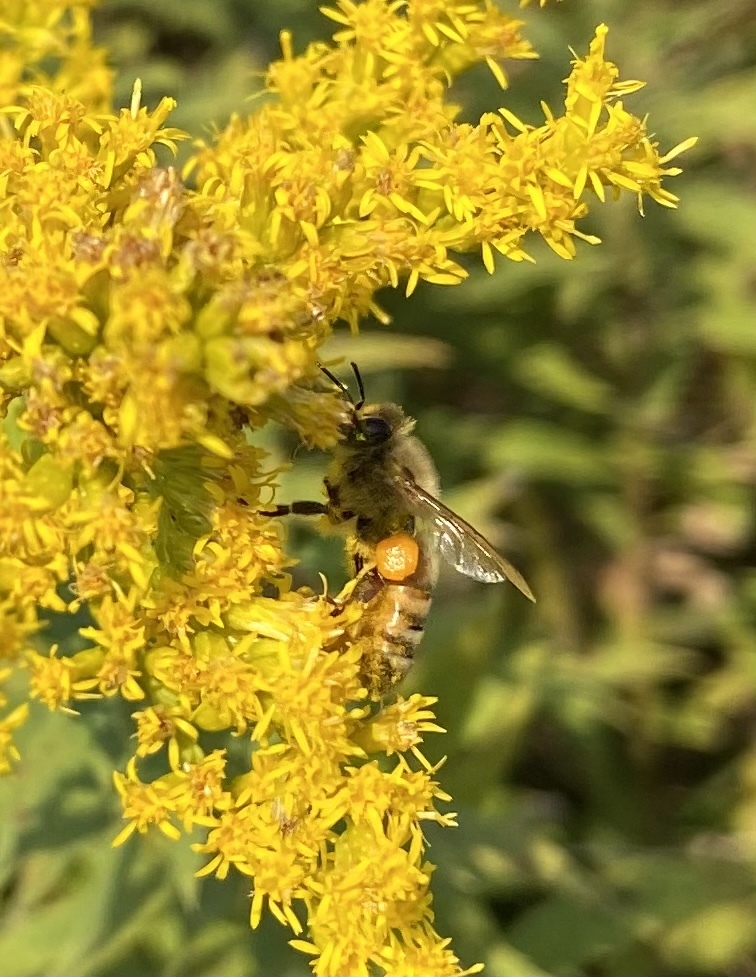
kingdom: Animalia
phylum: Arthropoda
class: Insecta
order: Hymenoptera
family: Apidae
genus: Apis
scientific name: Apis mellifera
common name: Honey bee
